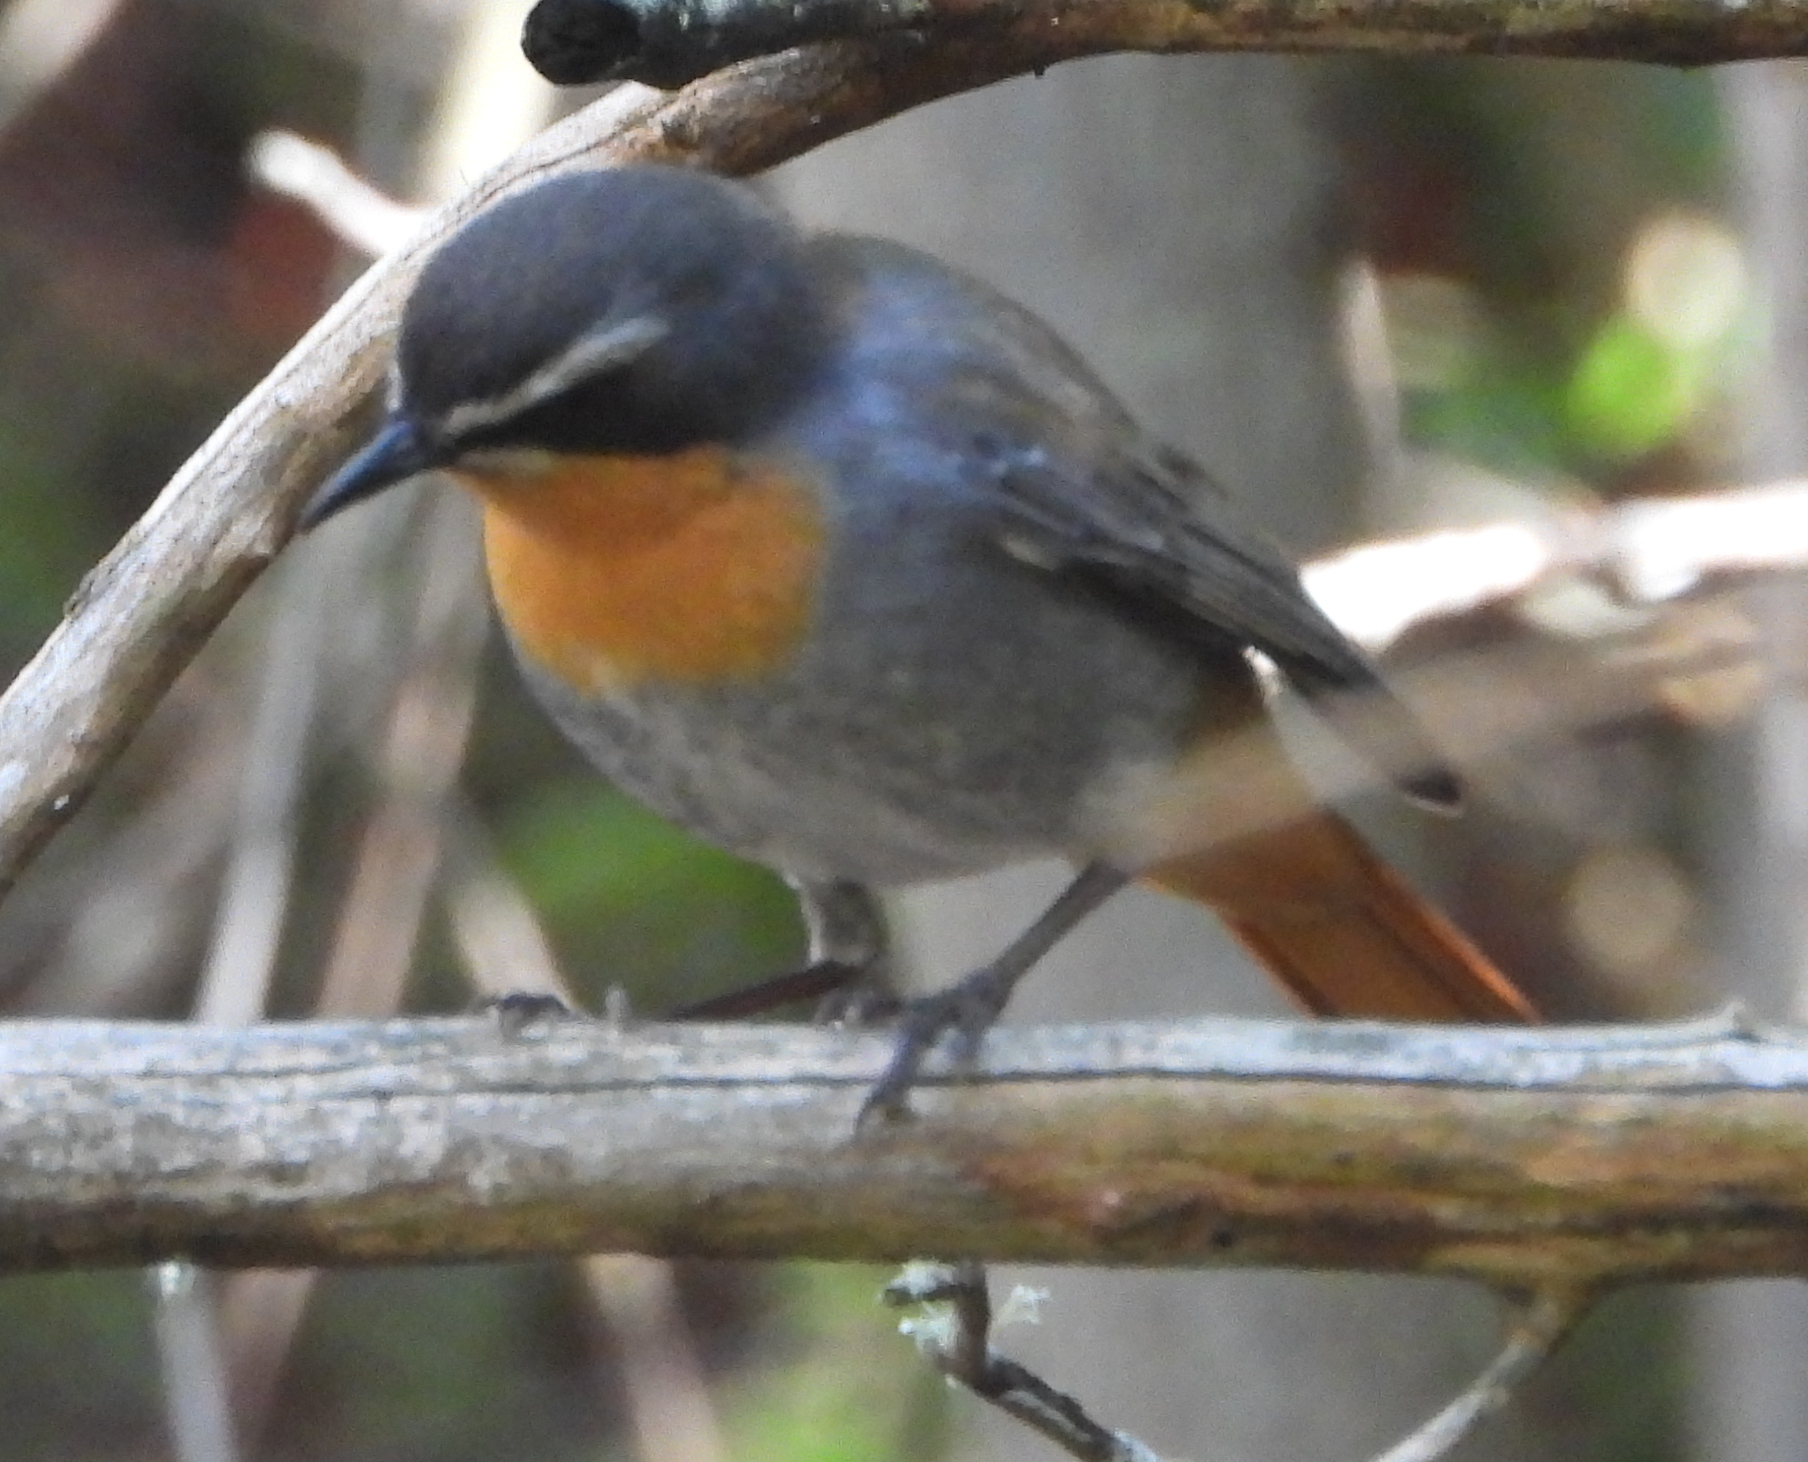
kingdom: Animalia
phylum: Chordata
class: Aves
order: Passeriformes
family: Muscicapidae
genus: Cossypha
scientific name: Cossypha caffra
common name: Cape robin-chat
